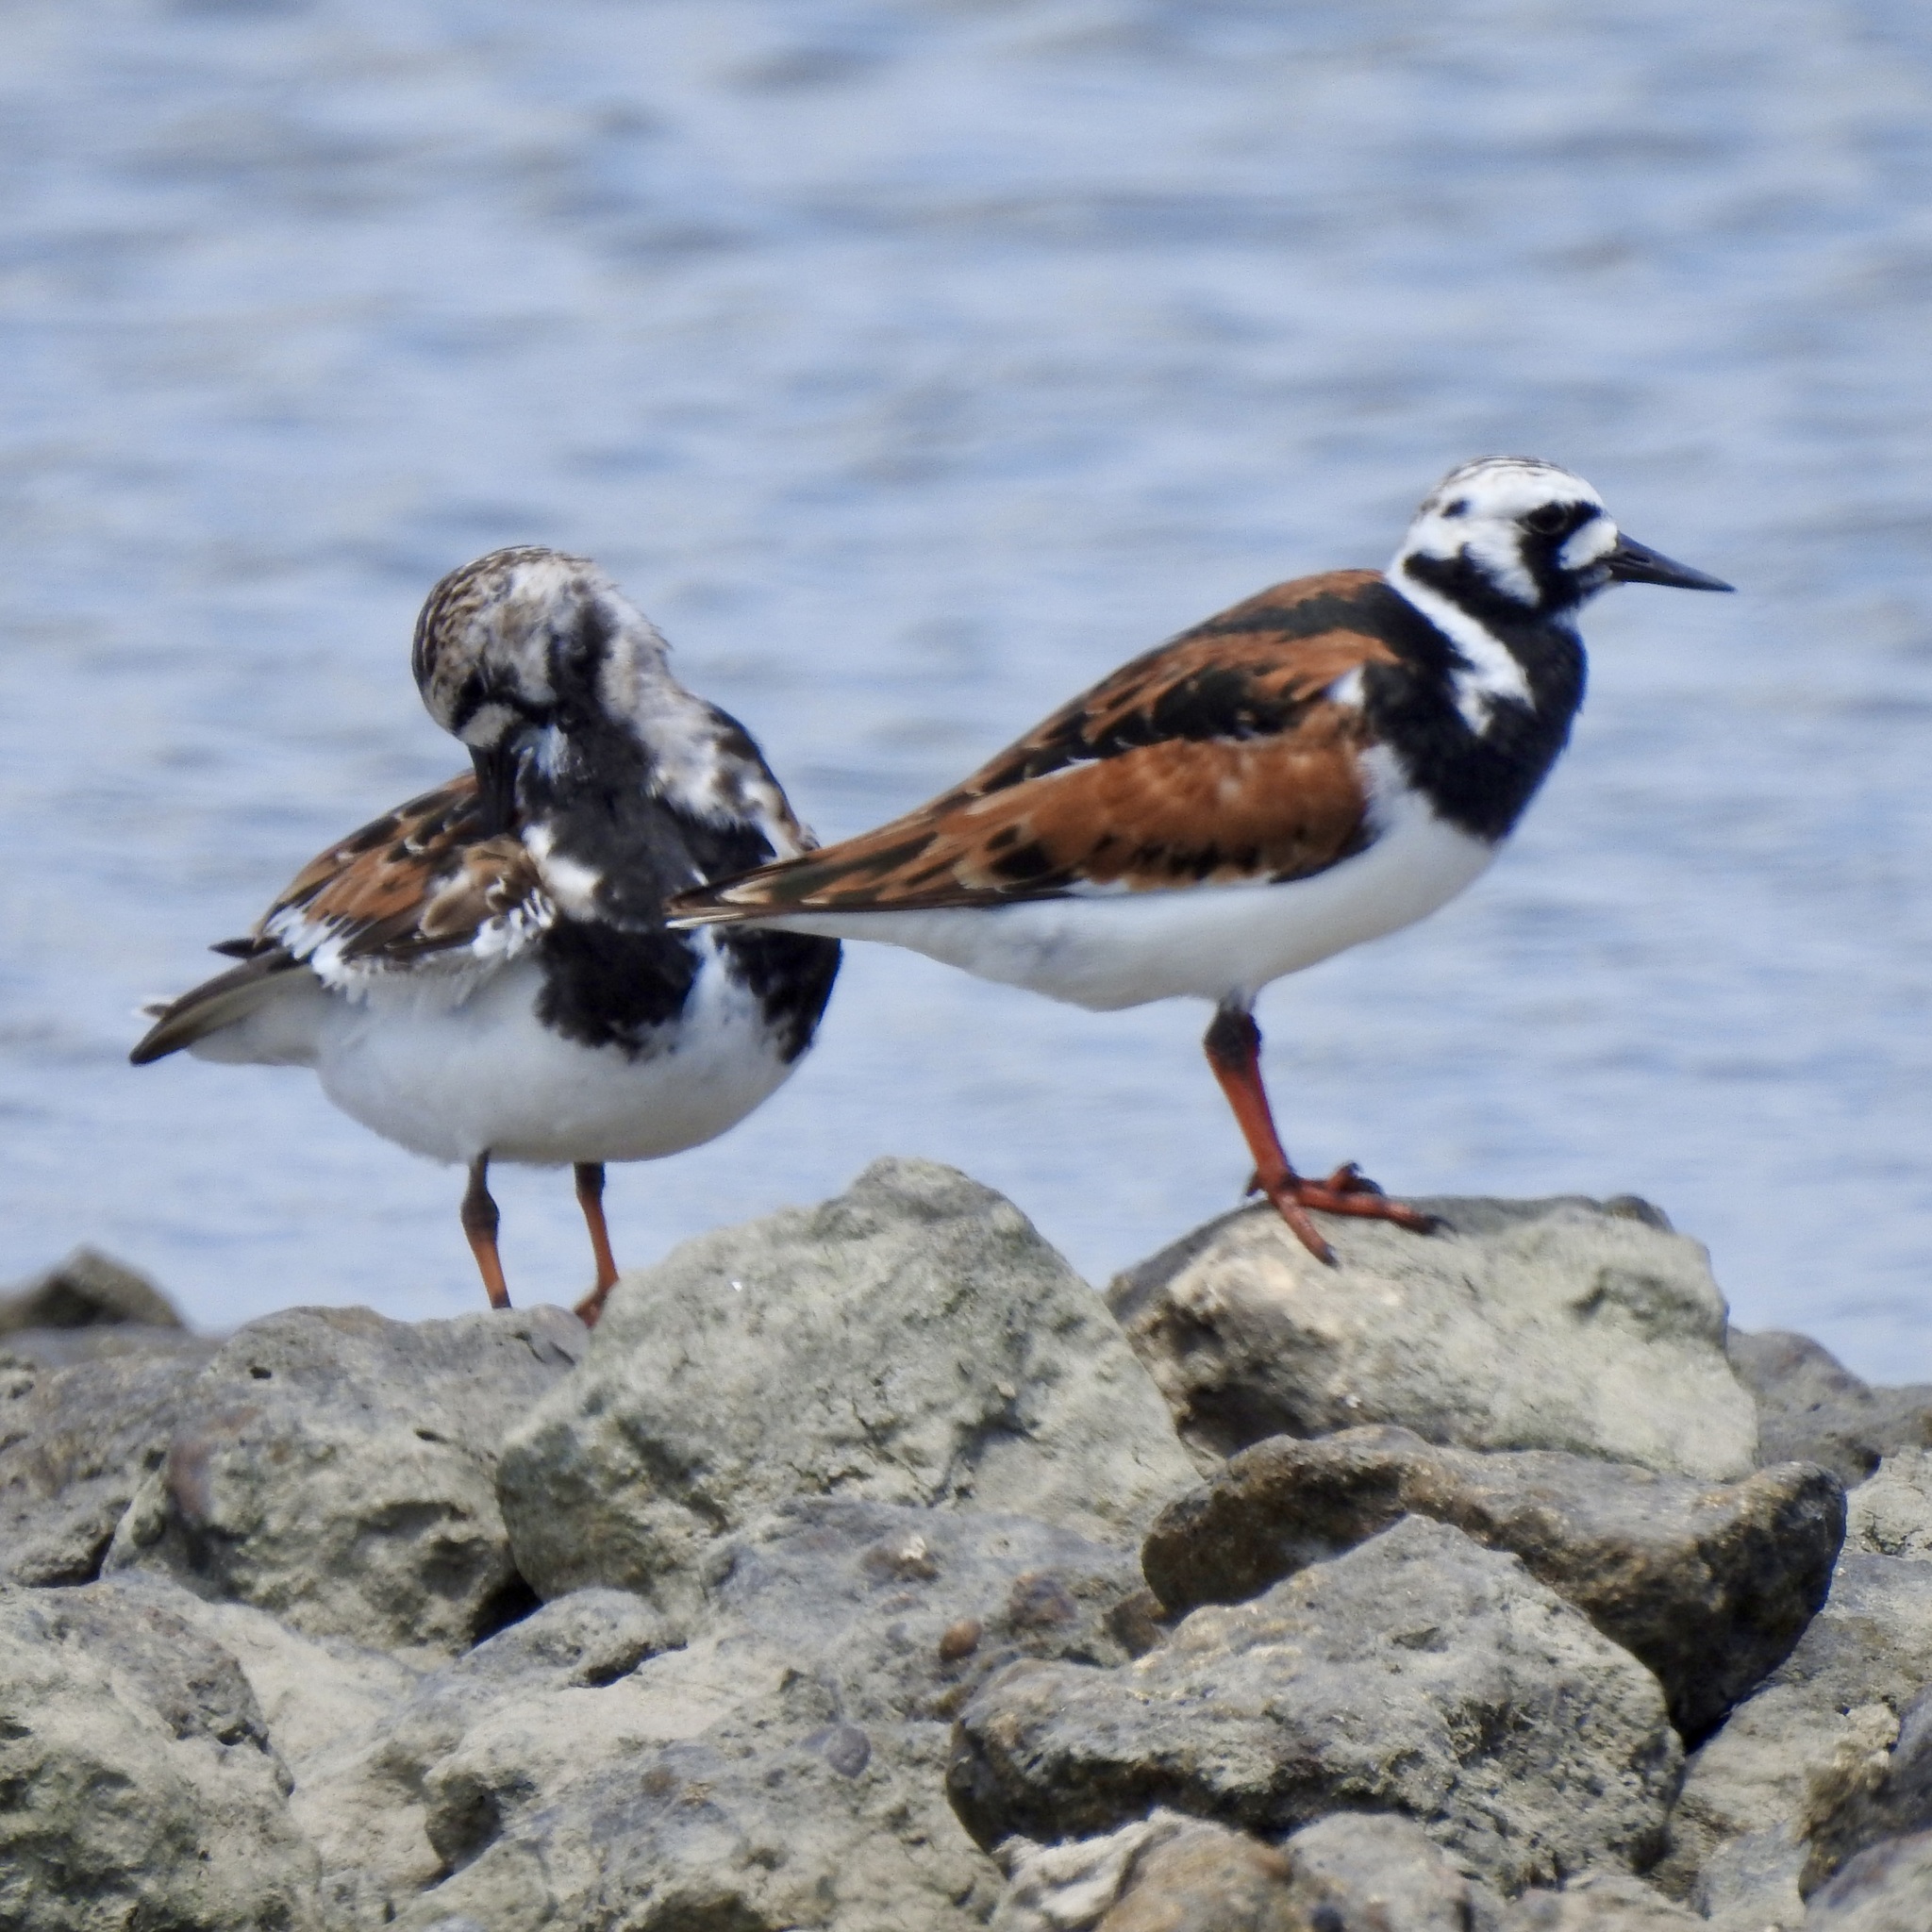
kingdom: Animalia
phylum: Chordata
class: Aves
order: Charadriiformes
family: Scolopacidae
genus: Arenaria
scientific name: Arenaria interpres
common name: Ruddy turnstone
